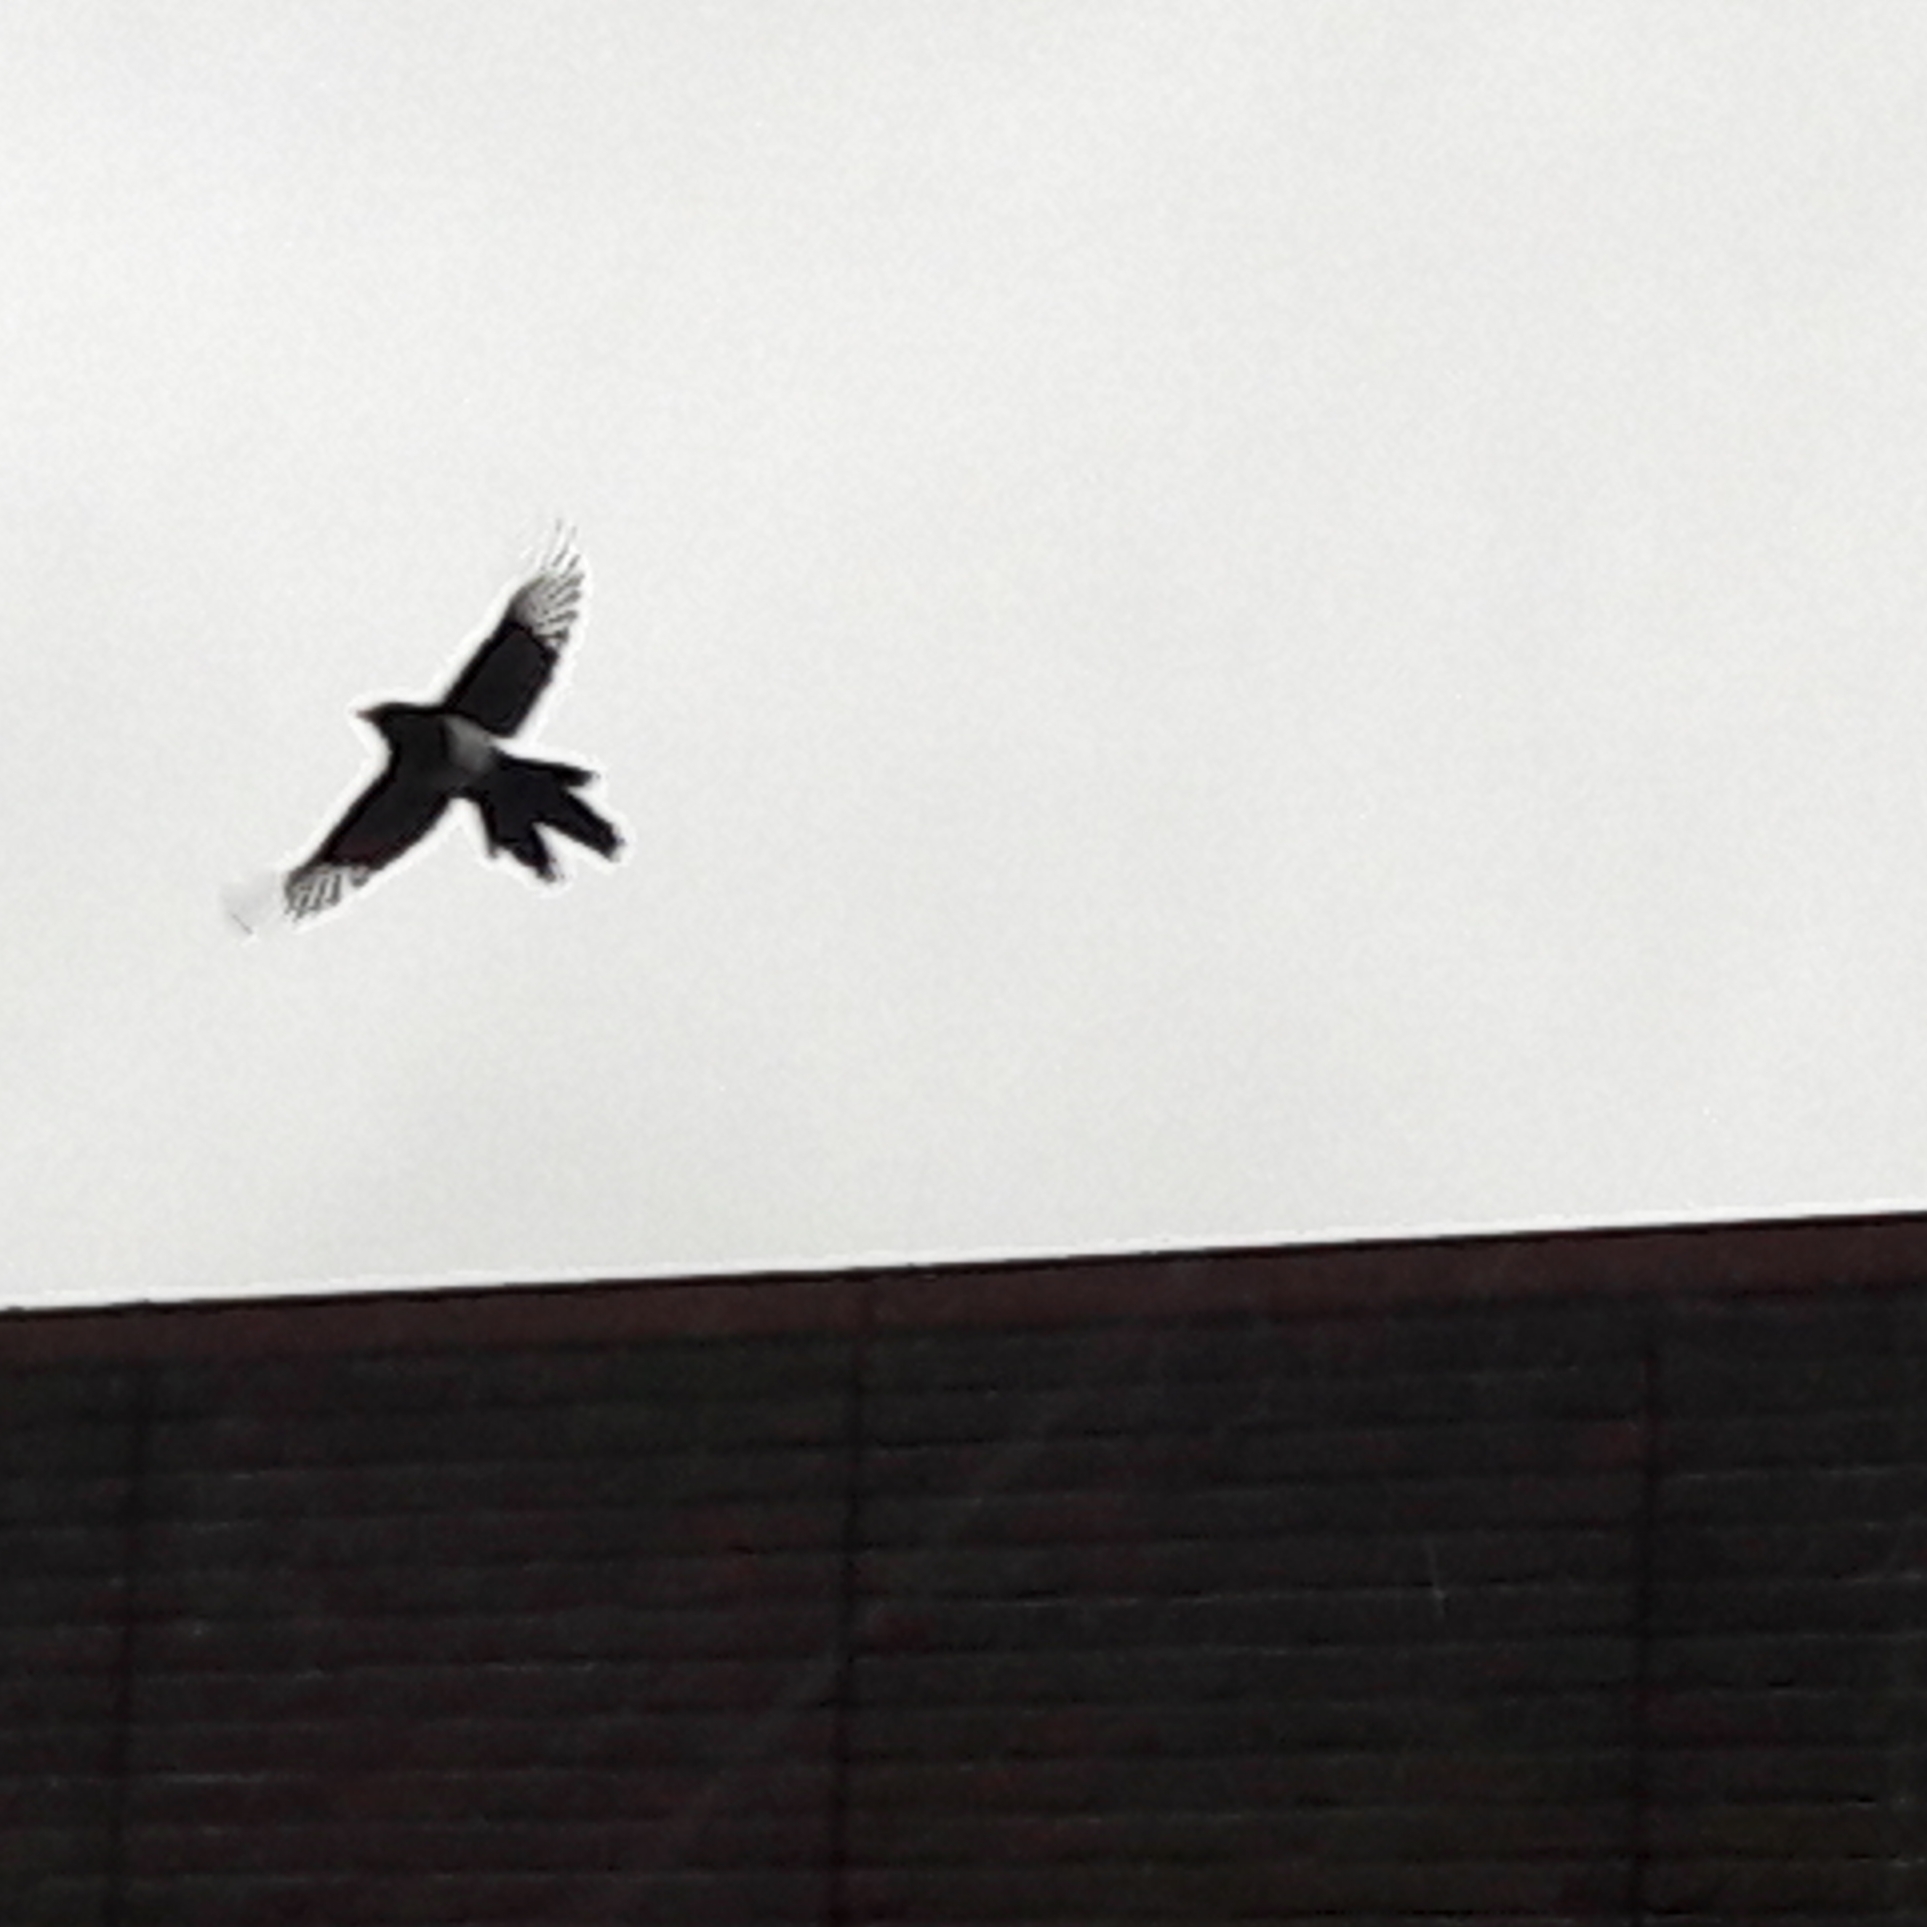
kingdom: Animalia
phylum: Chordata
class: Aves
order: Passeriformes
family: Corvidae
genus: Pica
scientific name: Pica pica
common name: Eurasian magpie
